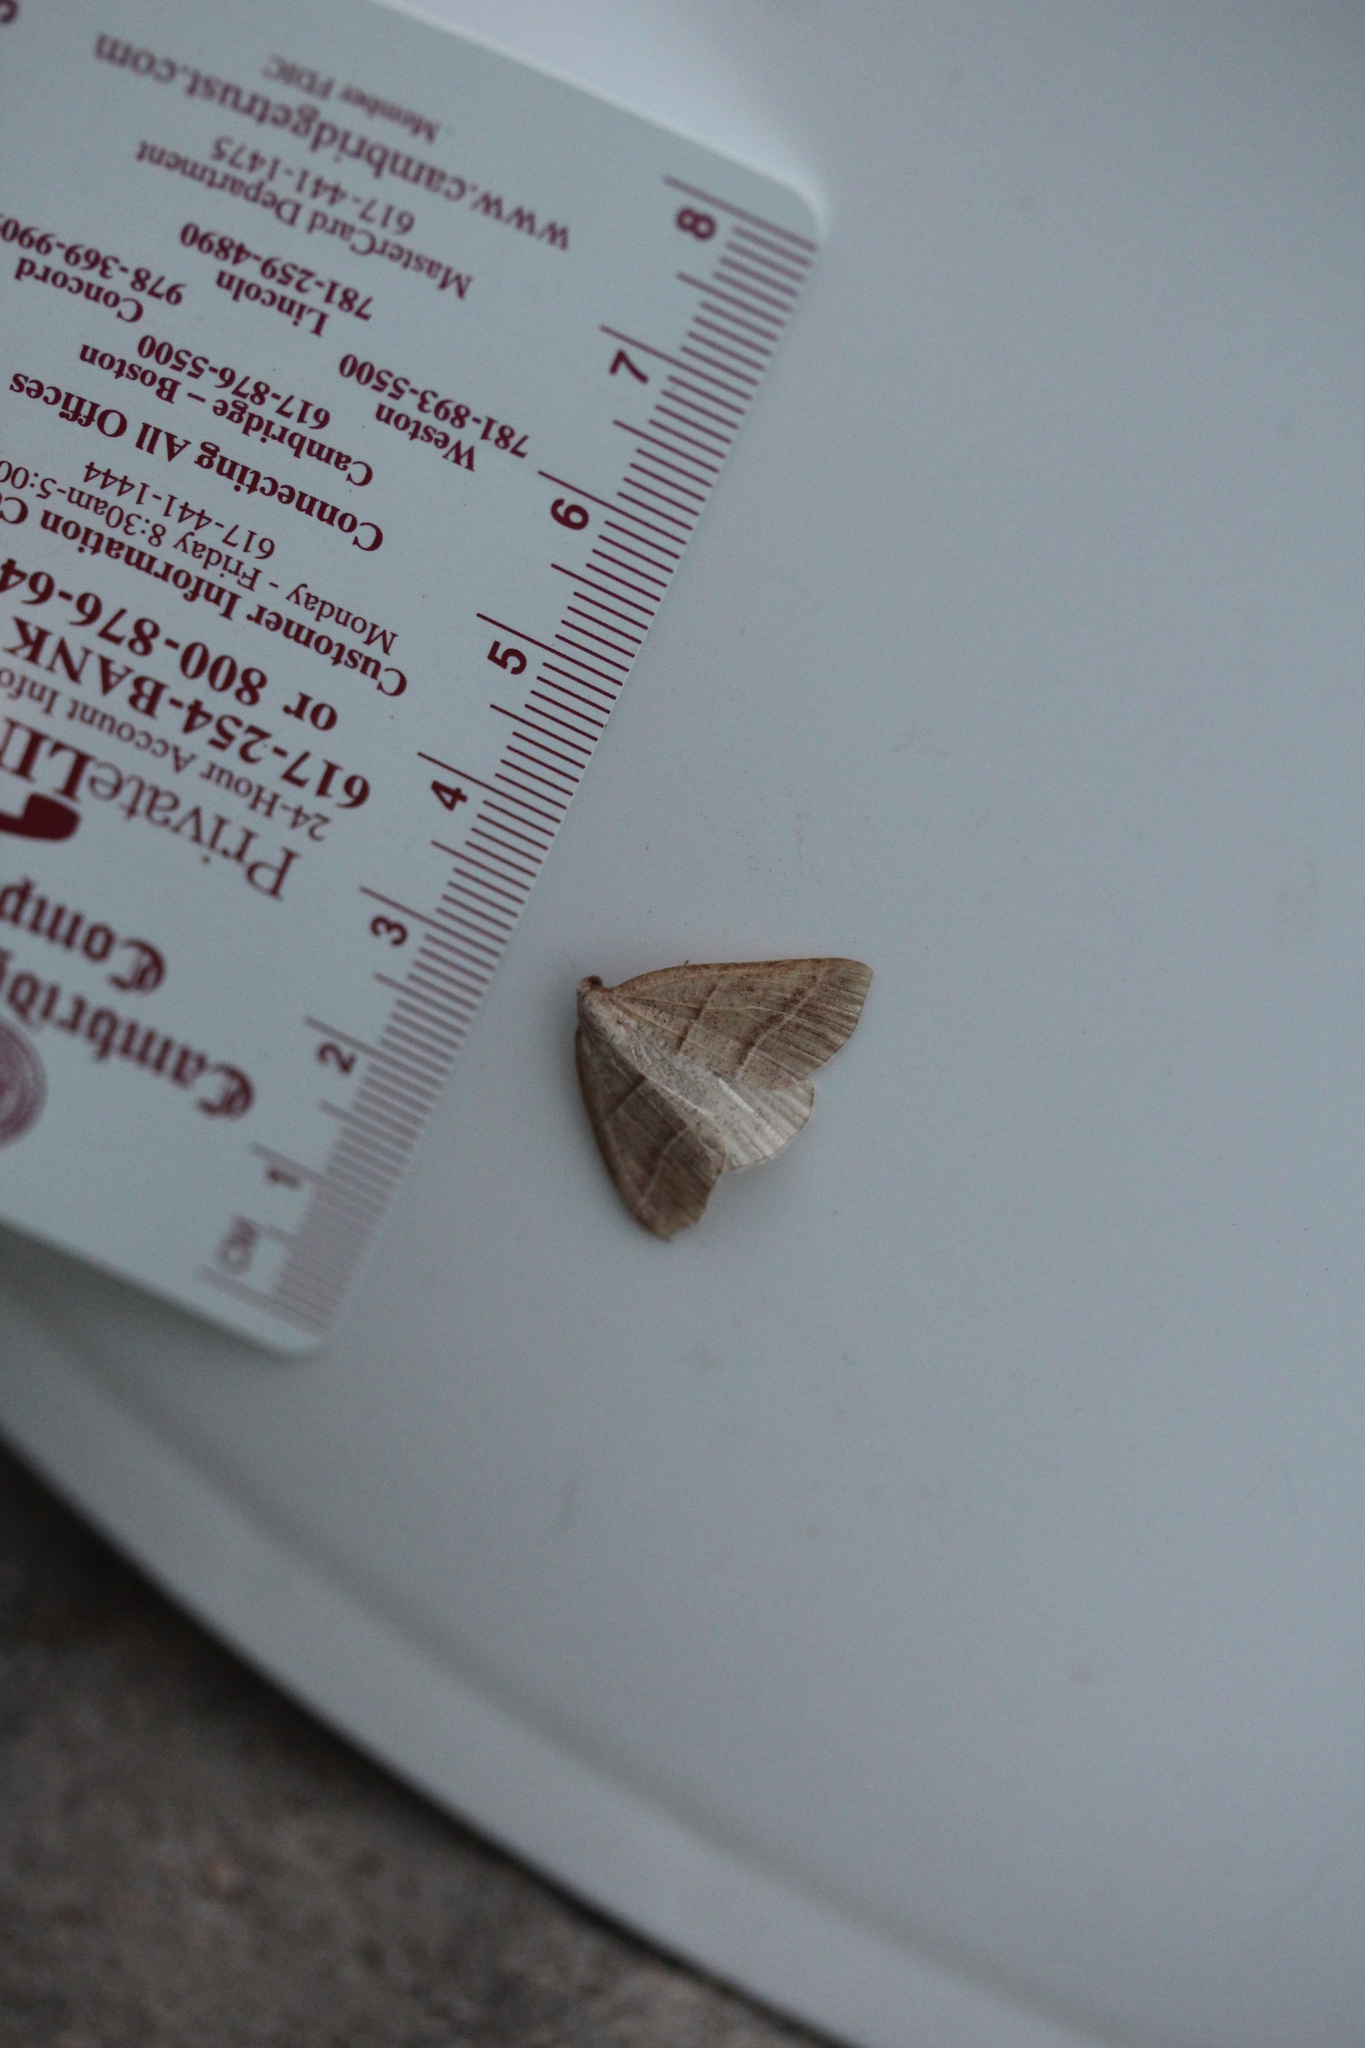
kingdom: Animalia
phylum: Arthropoda
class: Insecta
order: Lepidoptera
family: Pterophoridae
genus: Pterophorus
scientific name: Pterophorus Petrophora subaequaria
